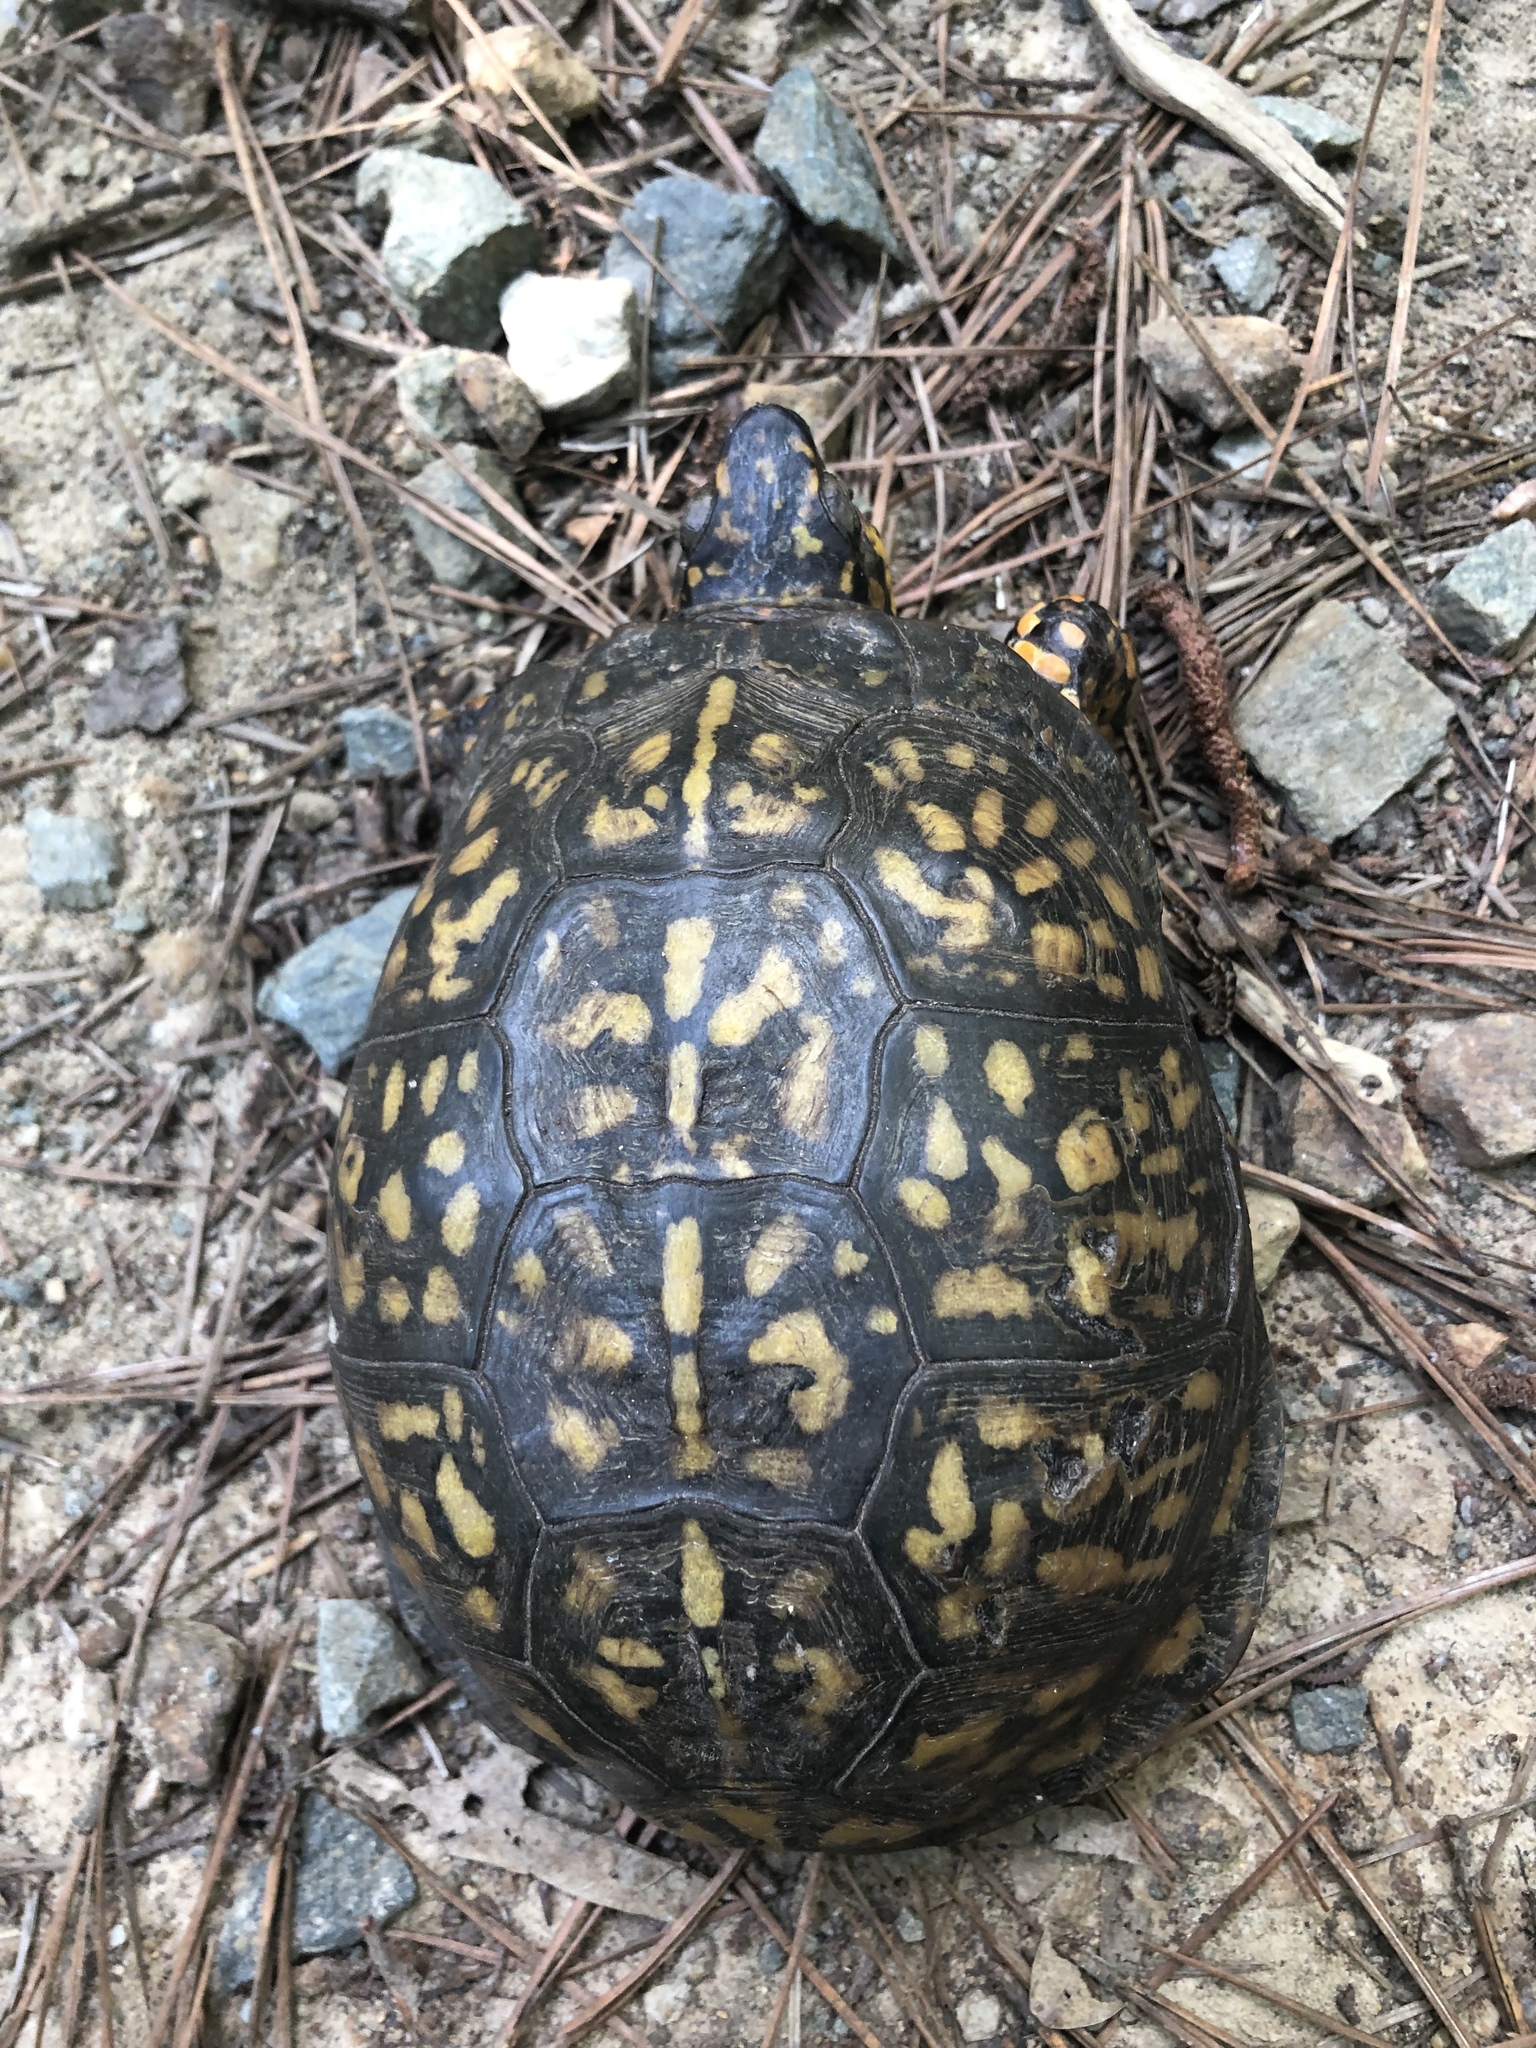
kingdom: Animalia
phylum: Chordata
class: Testudines
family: Emydidae
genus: Terrapene
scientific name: Terrapene carolina
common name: Common box turtle
